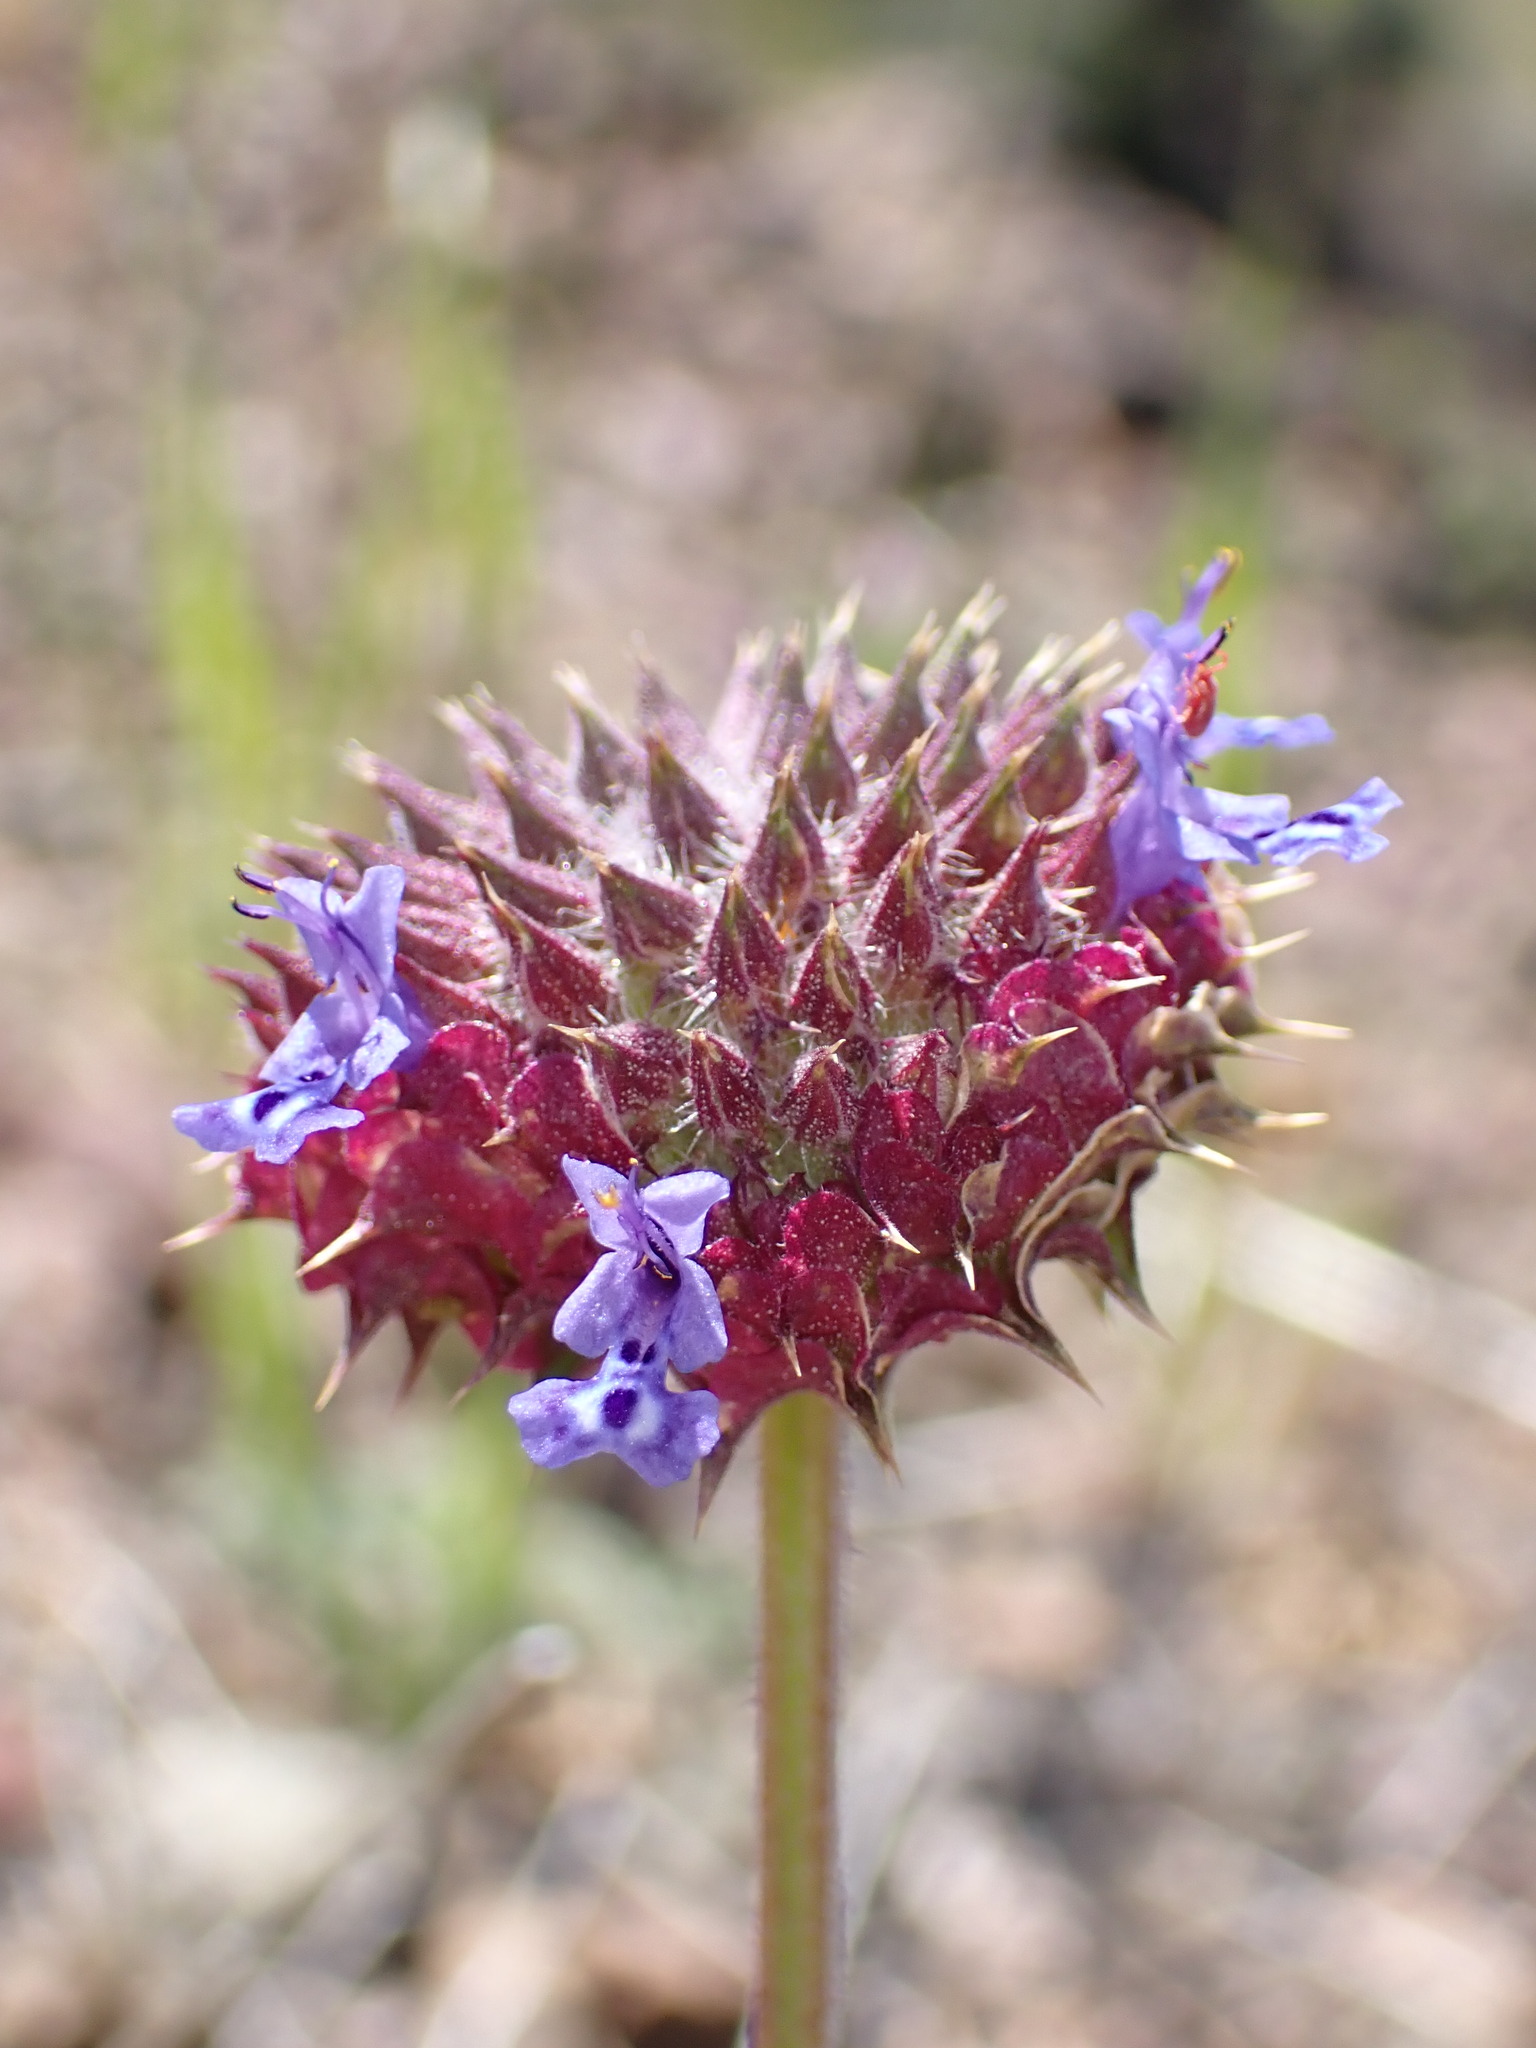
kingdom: Plantae
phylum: Tracheophyta
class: Magnoliopsida
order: Lamiales
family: Lamiaceae
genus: Salvia
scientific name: Salvia columbariae
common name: Chia
